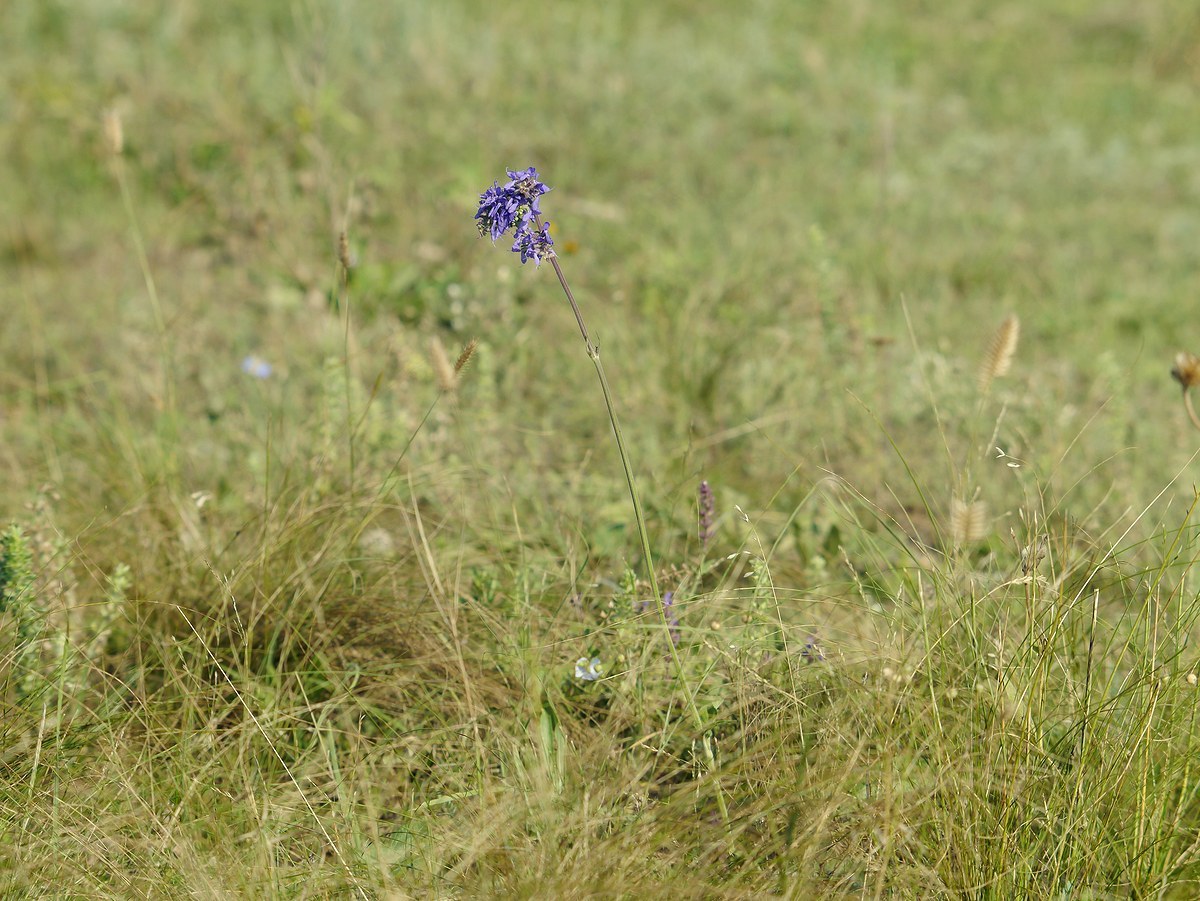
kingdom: Plantae
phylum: Tracheophyta
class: Magnoliopsida
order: Lamiales
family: Lamiaceae
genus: Salvia
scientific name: Salvia nutans
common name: Nodding sage
